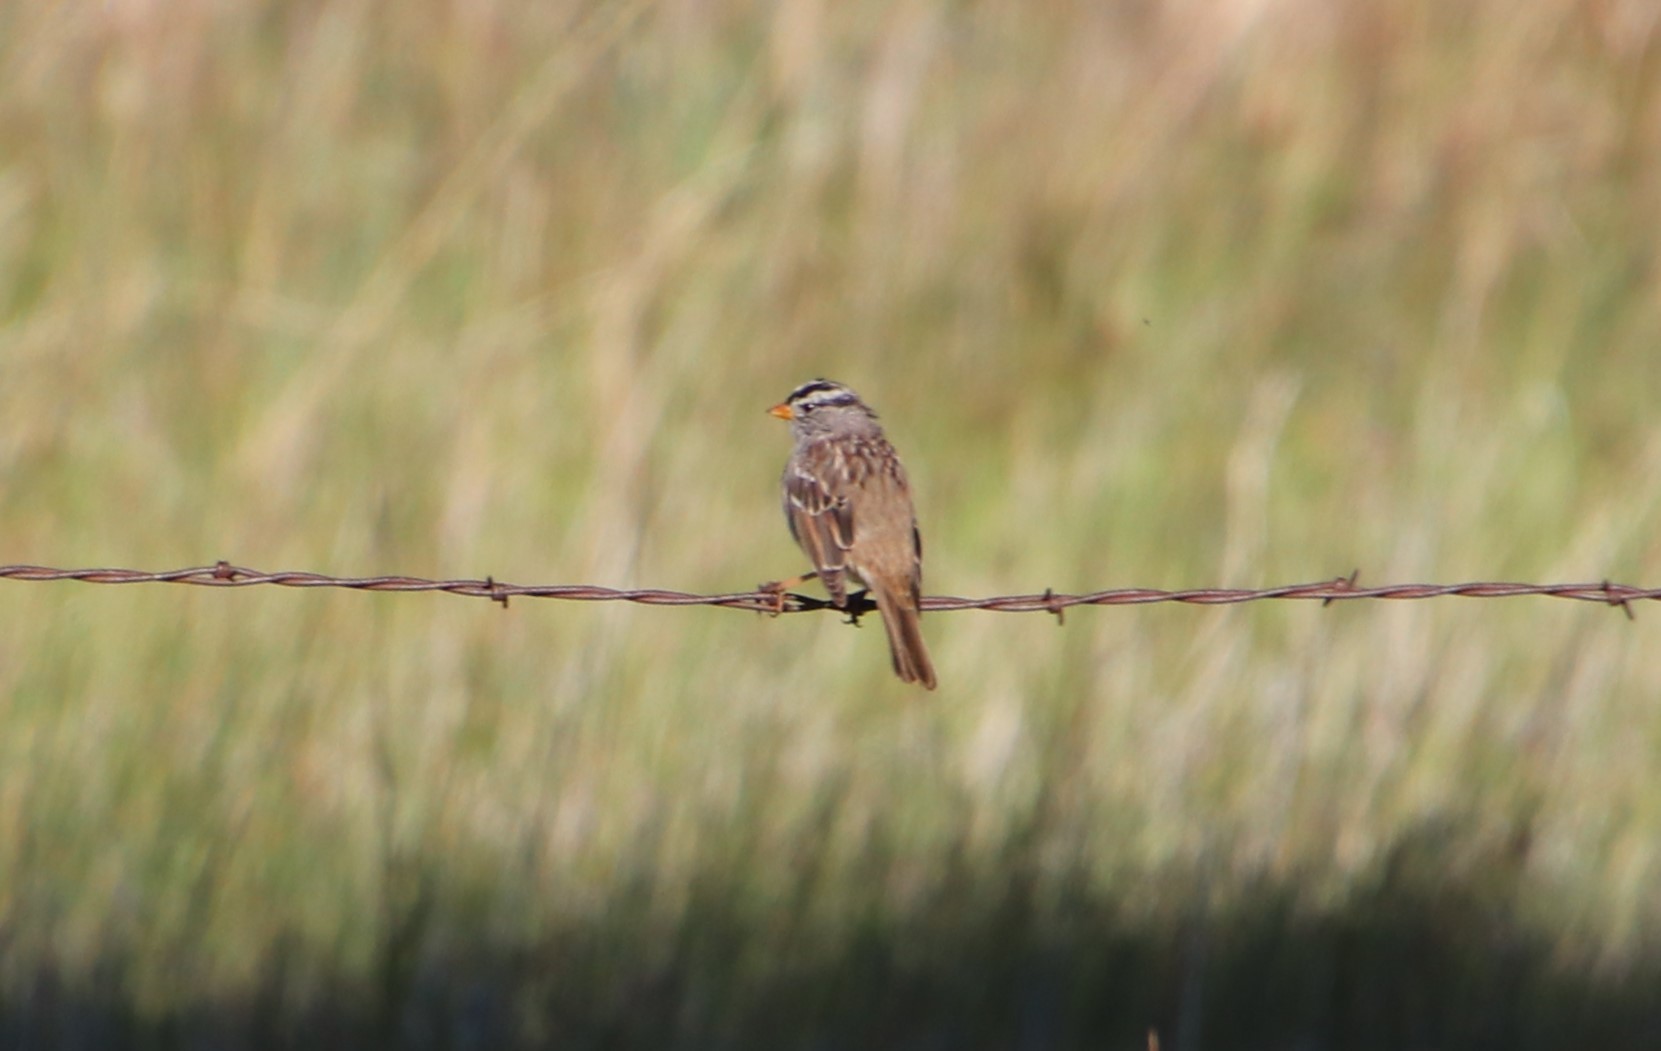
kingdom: Animalia
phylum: Chordata
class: Aves
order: Passeriformes
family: Passerellidae
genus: Zonotrichia
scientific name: Zonotrichia leucophrys
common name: White-crowned sparrow
